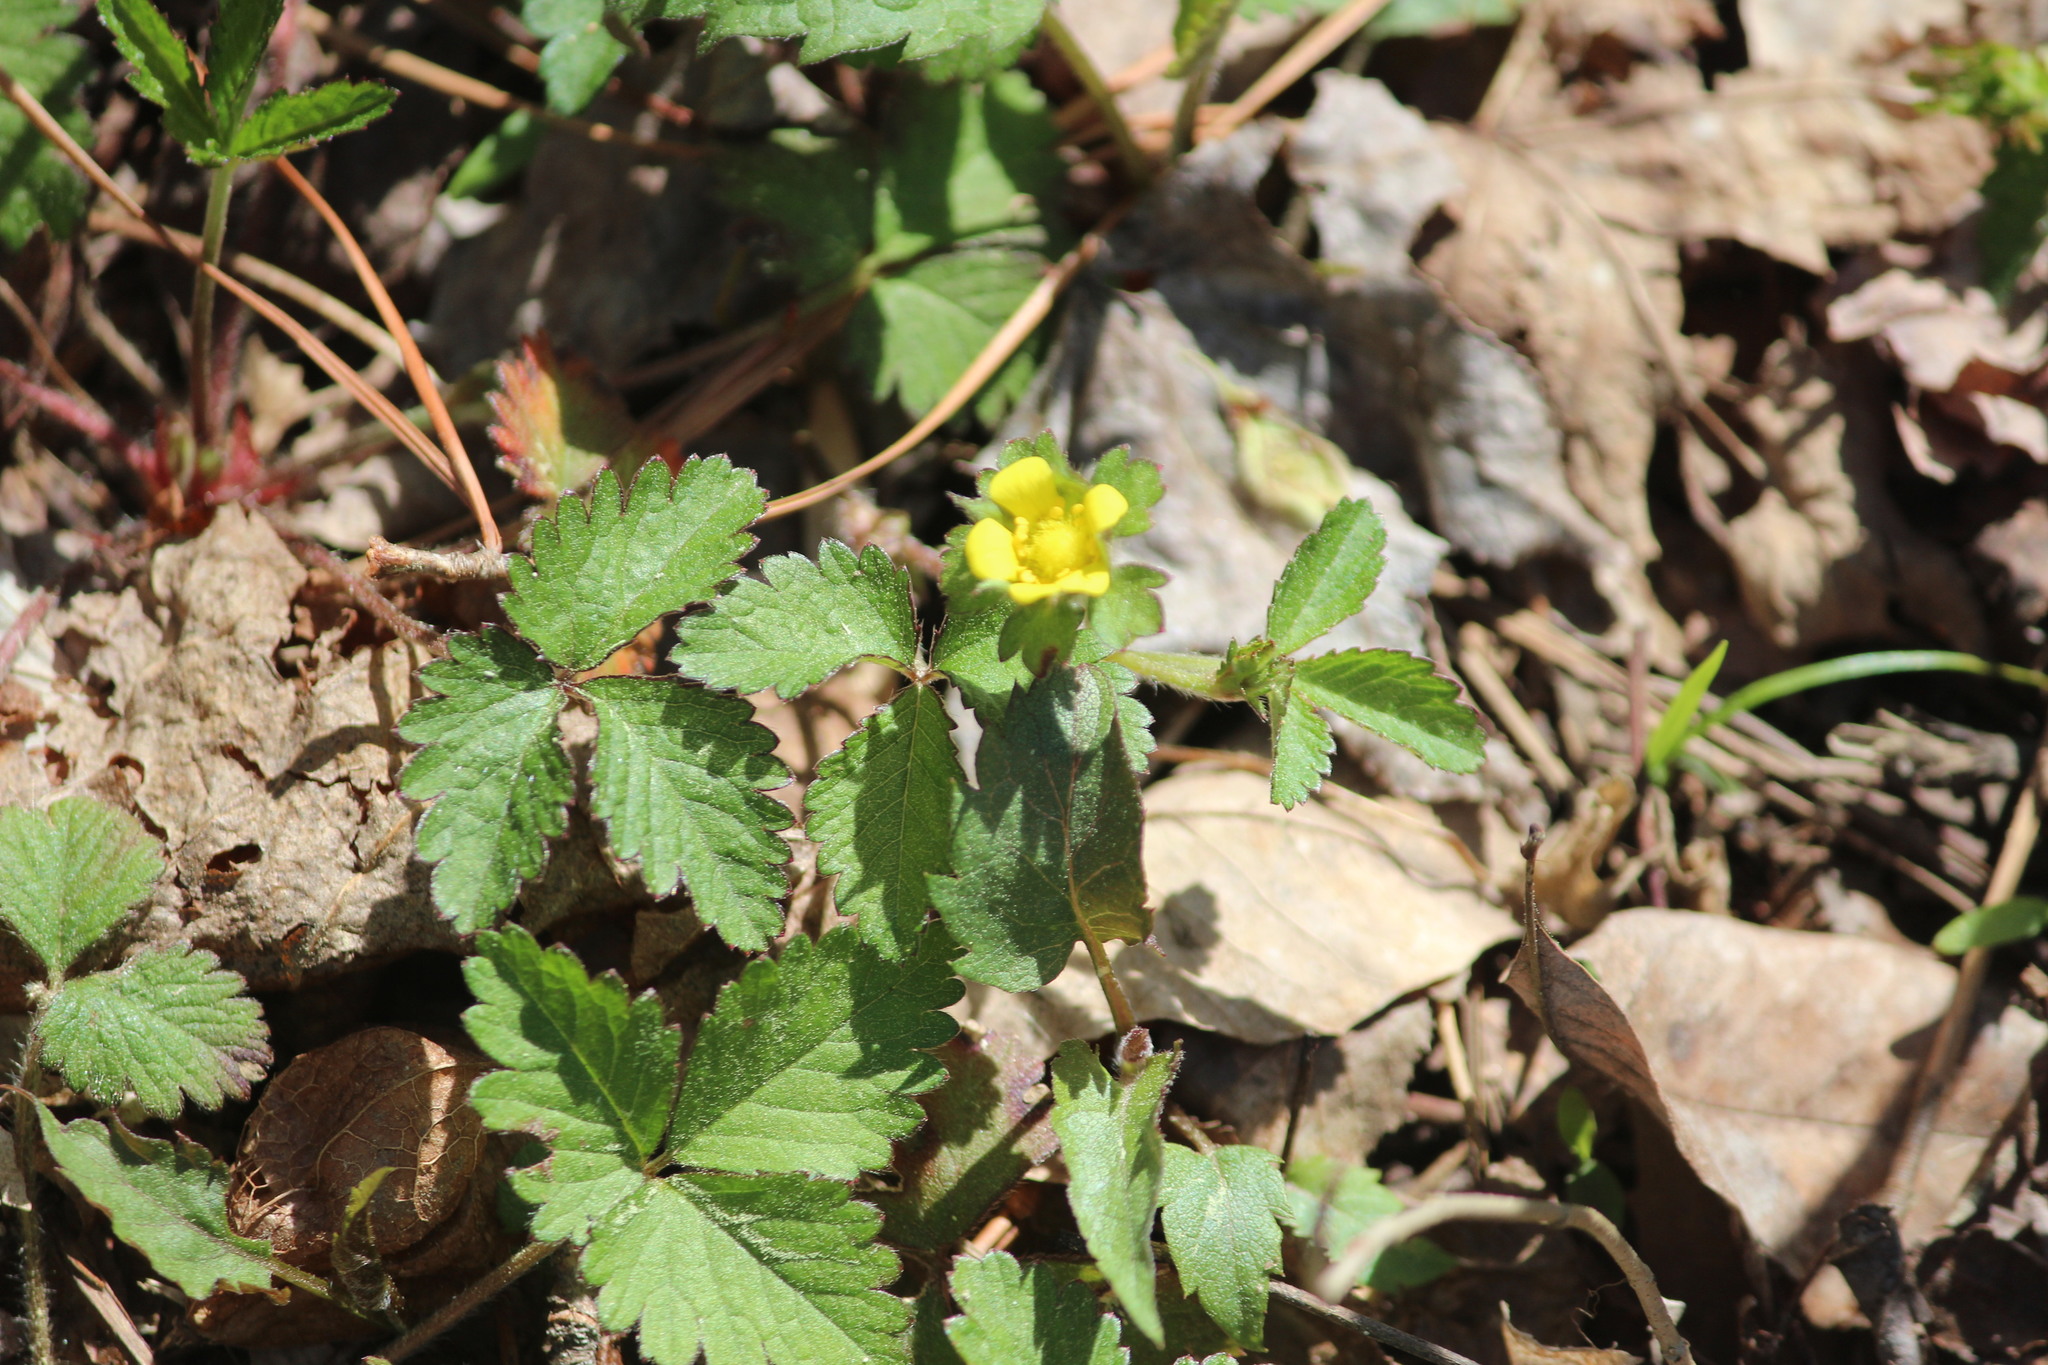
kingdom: Plantae
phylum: Tracheophyta
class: Magnoliopsida
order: Rosales
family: Rosaceae
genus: Potentilla
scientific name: Potentilla indica
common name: Yellow-flowered strawberry
